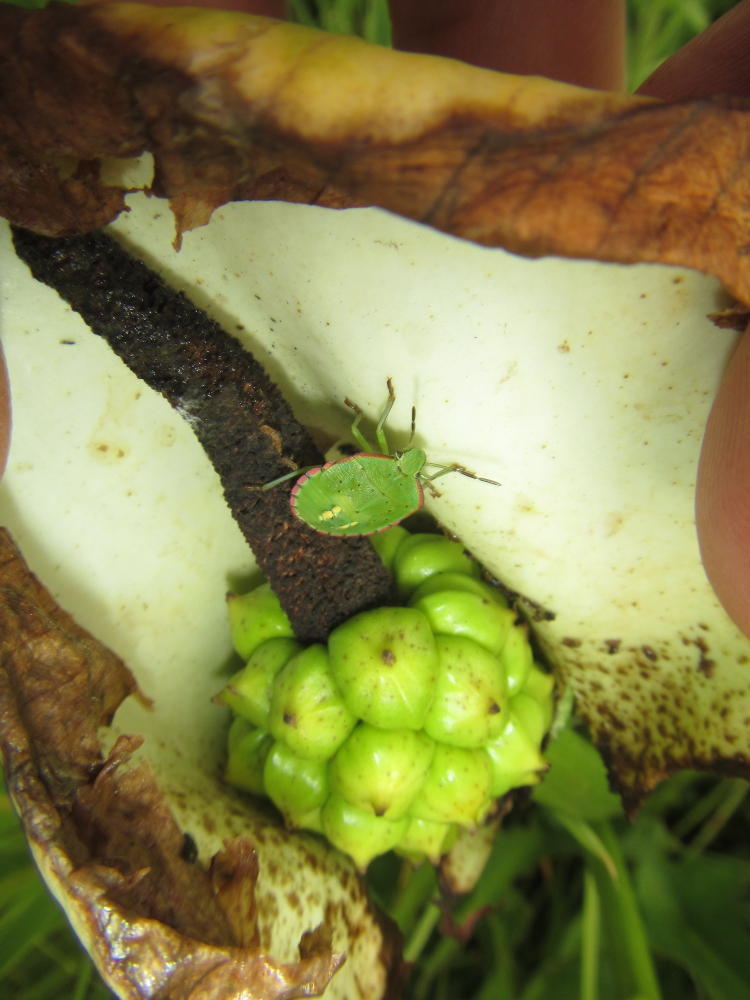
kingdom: Plantae
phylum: Tracheophyta
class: Liliopsida
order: Alismatales
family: Araceae
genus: Zantedeschia
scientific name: Zantedeschia aethiopica
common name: Altar-lily
